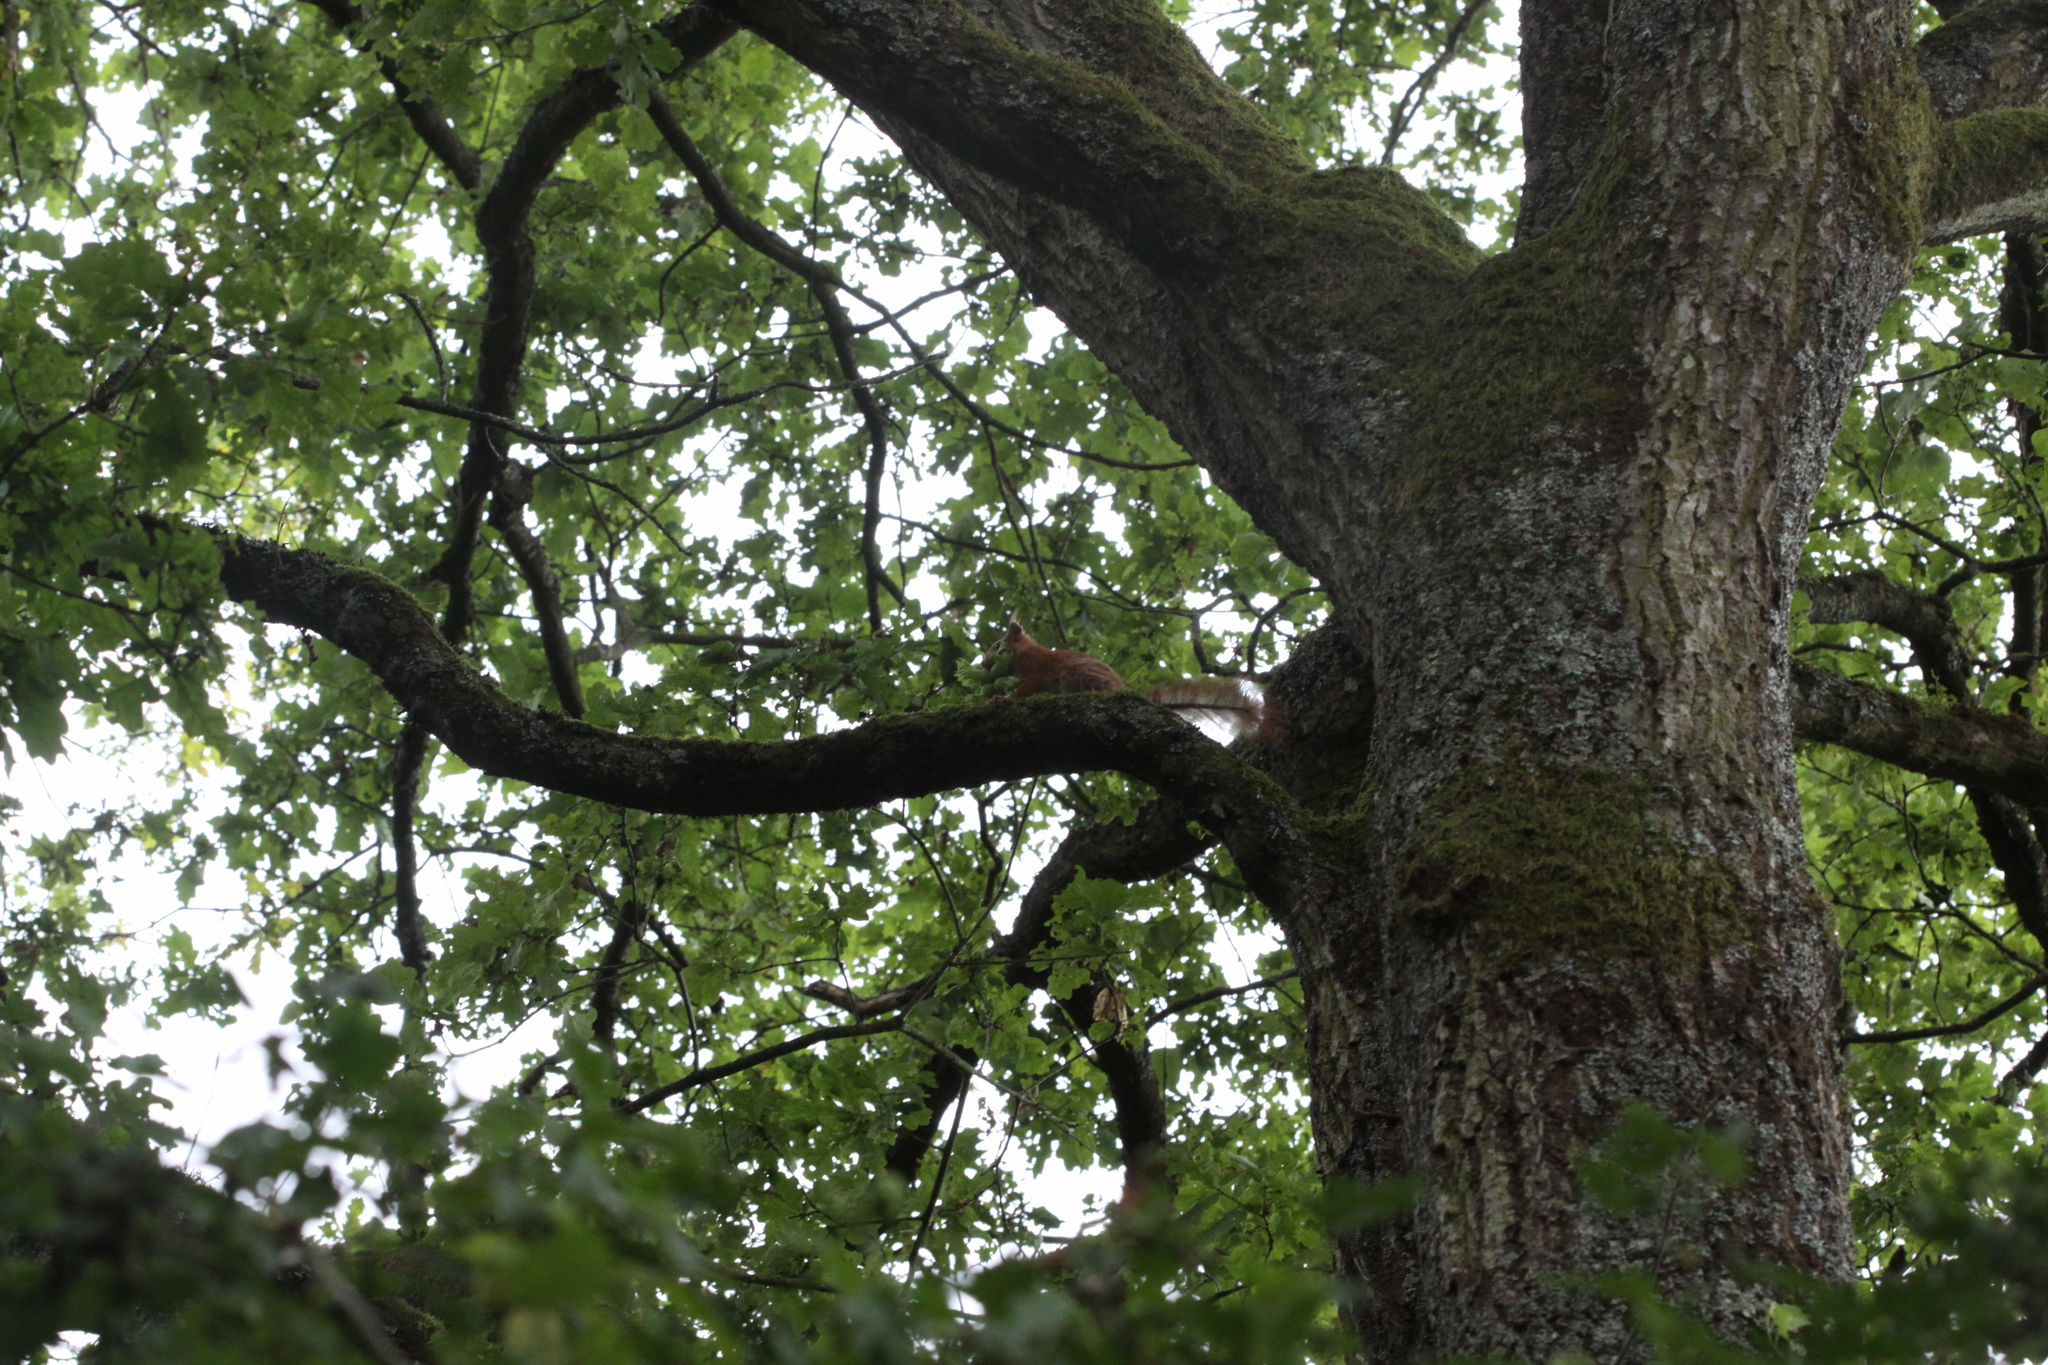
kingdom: Animalia
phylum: Chordata
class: Mammalia
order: Rodentia
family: Sciuridae
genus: Sciurus
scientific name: Sciurus vulgaris
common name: Eurasian red squirrel
